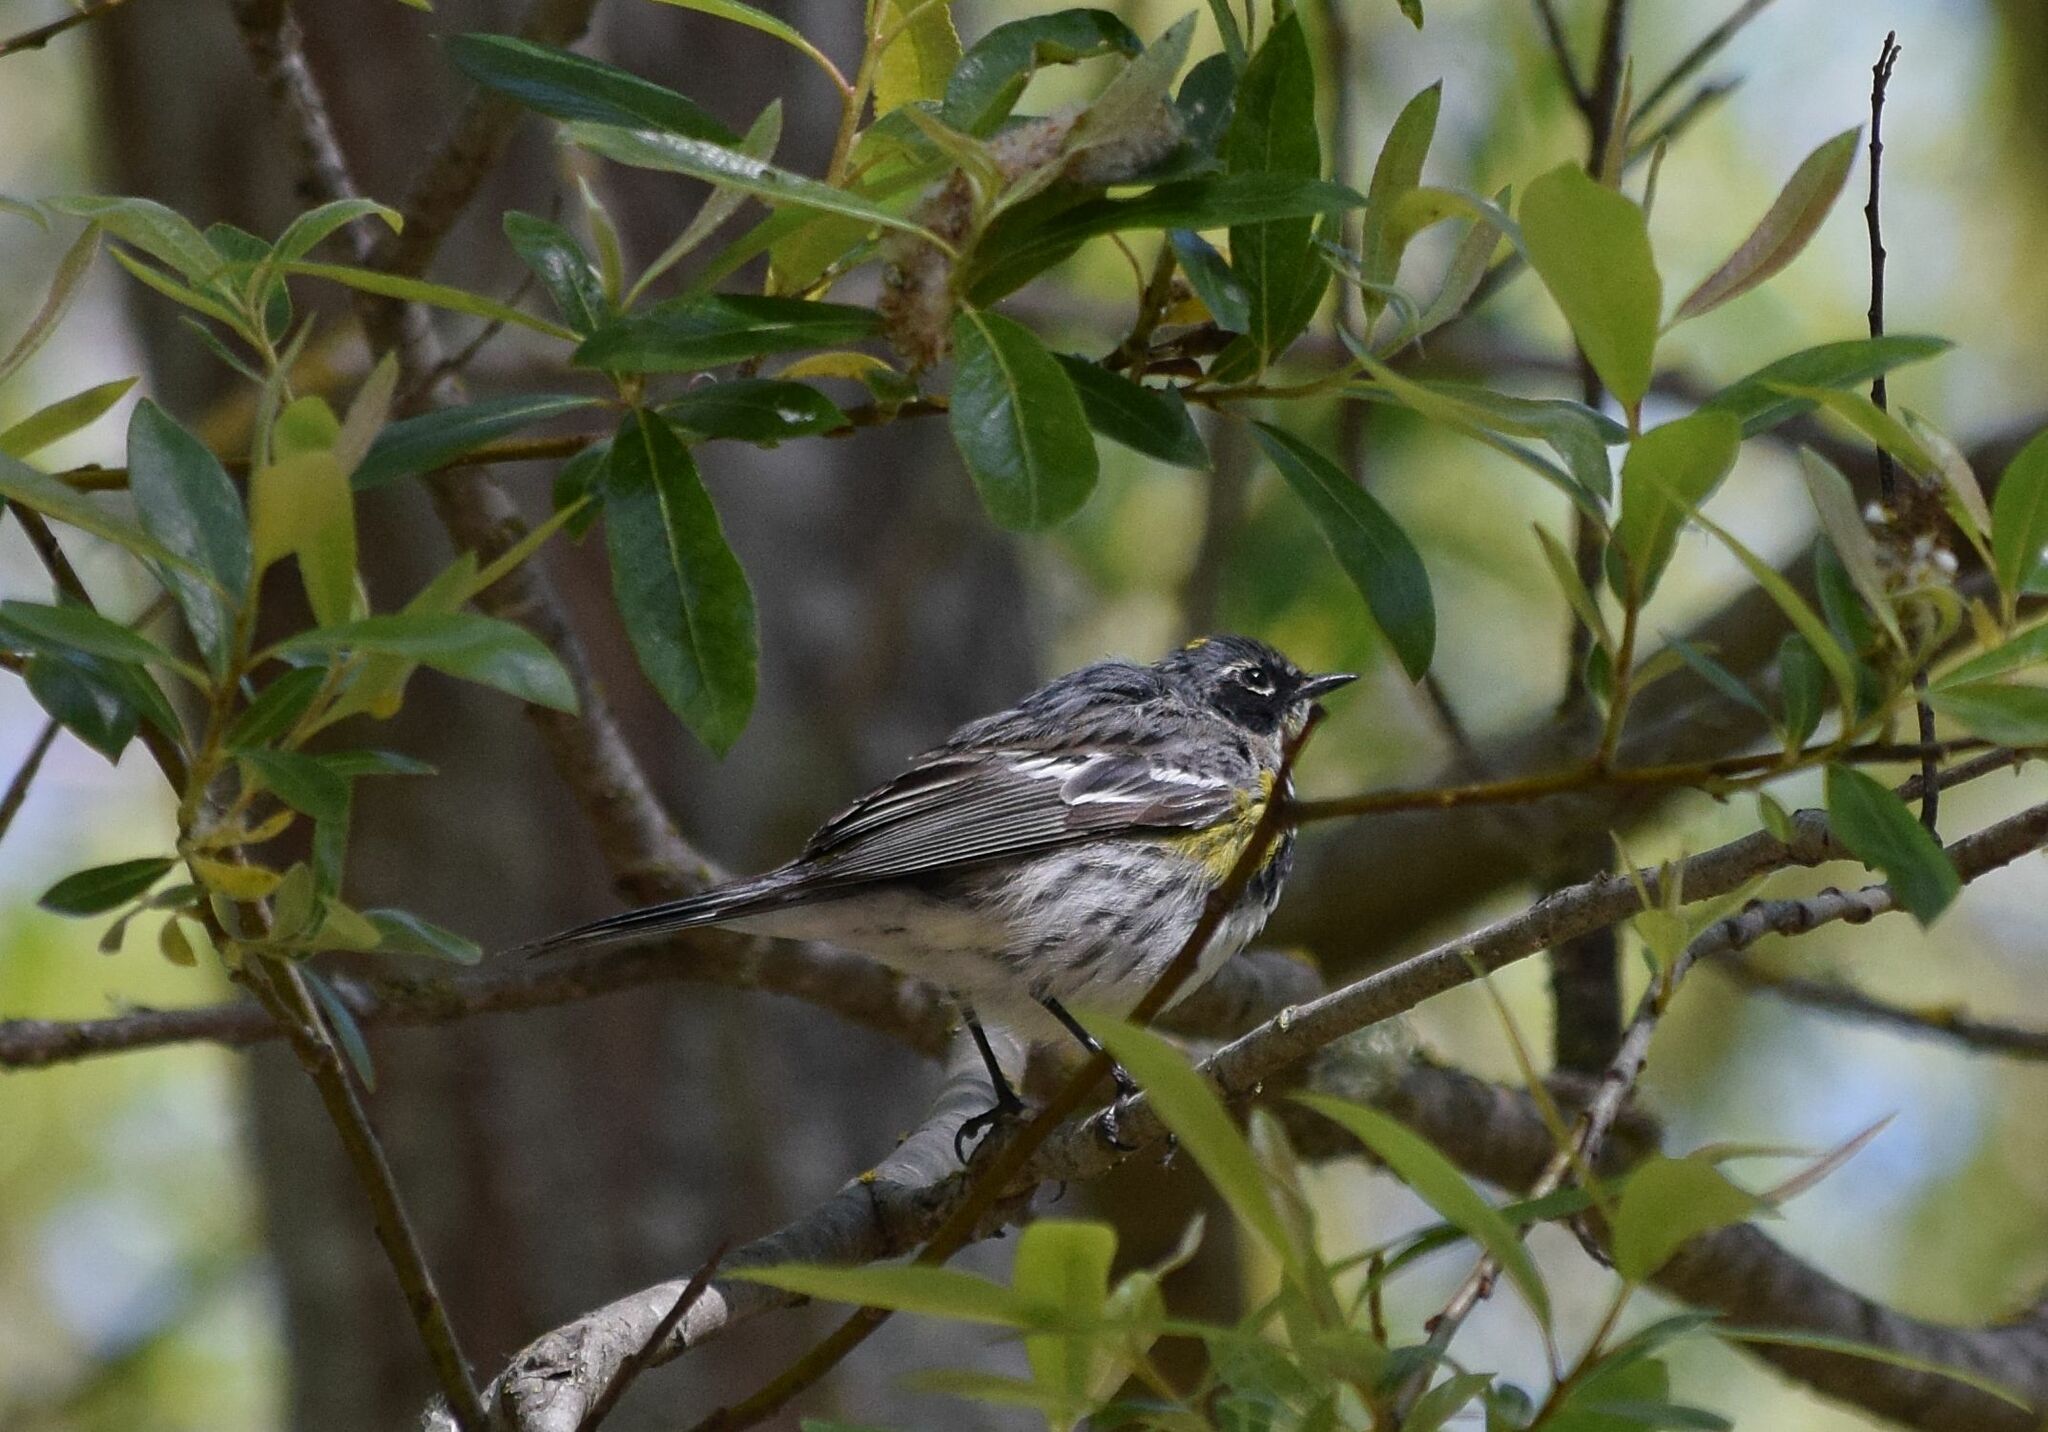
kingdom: Animalia
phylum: Chordata
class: Aves
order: Passeriformes
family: Parulidae
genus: Setophaga
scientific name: Setophaga coronata
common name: Myrtle warbler
